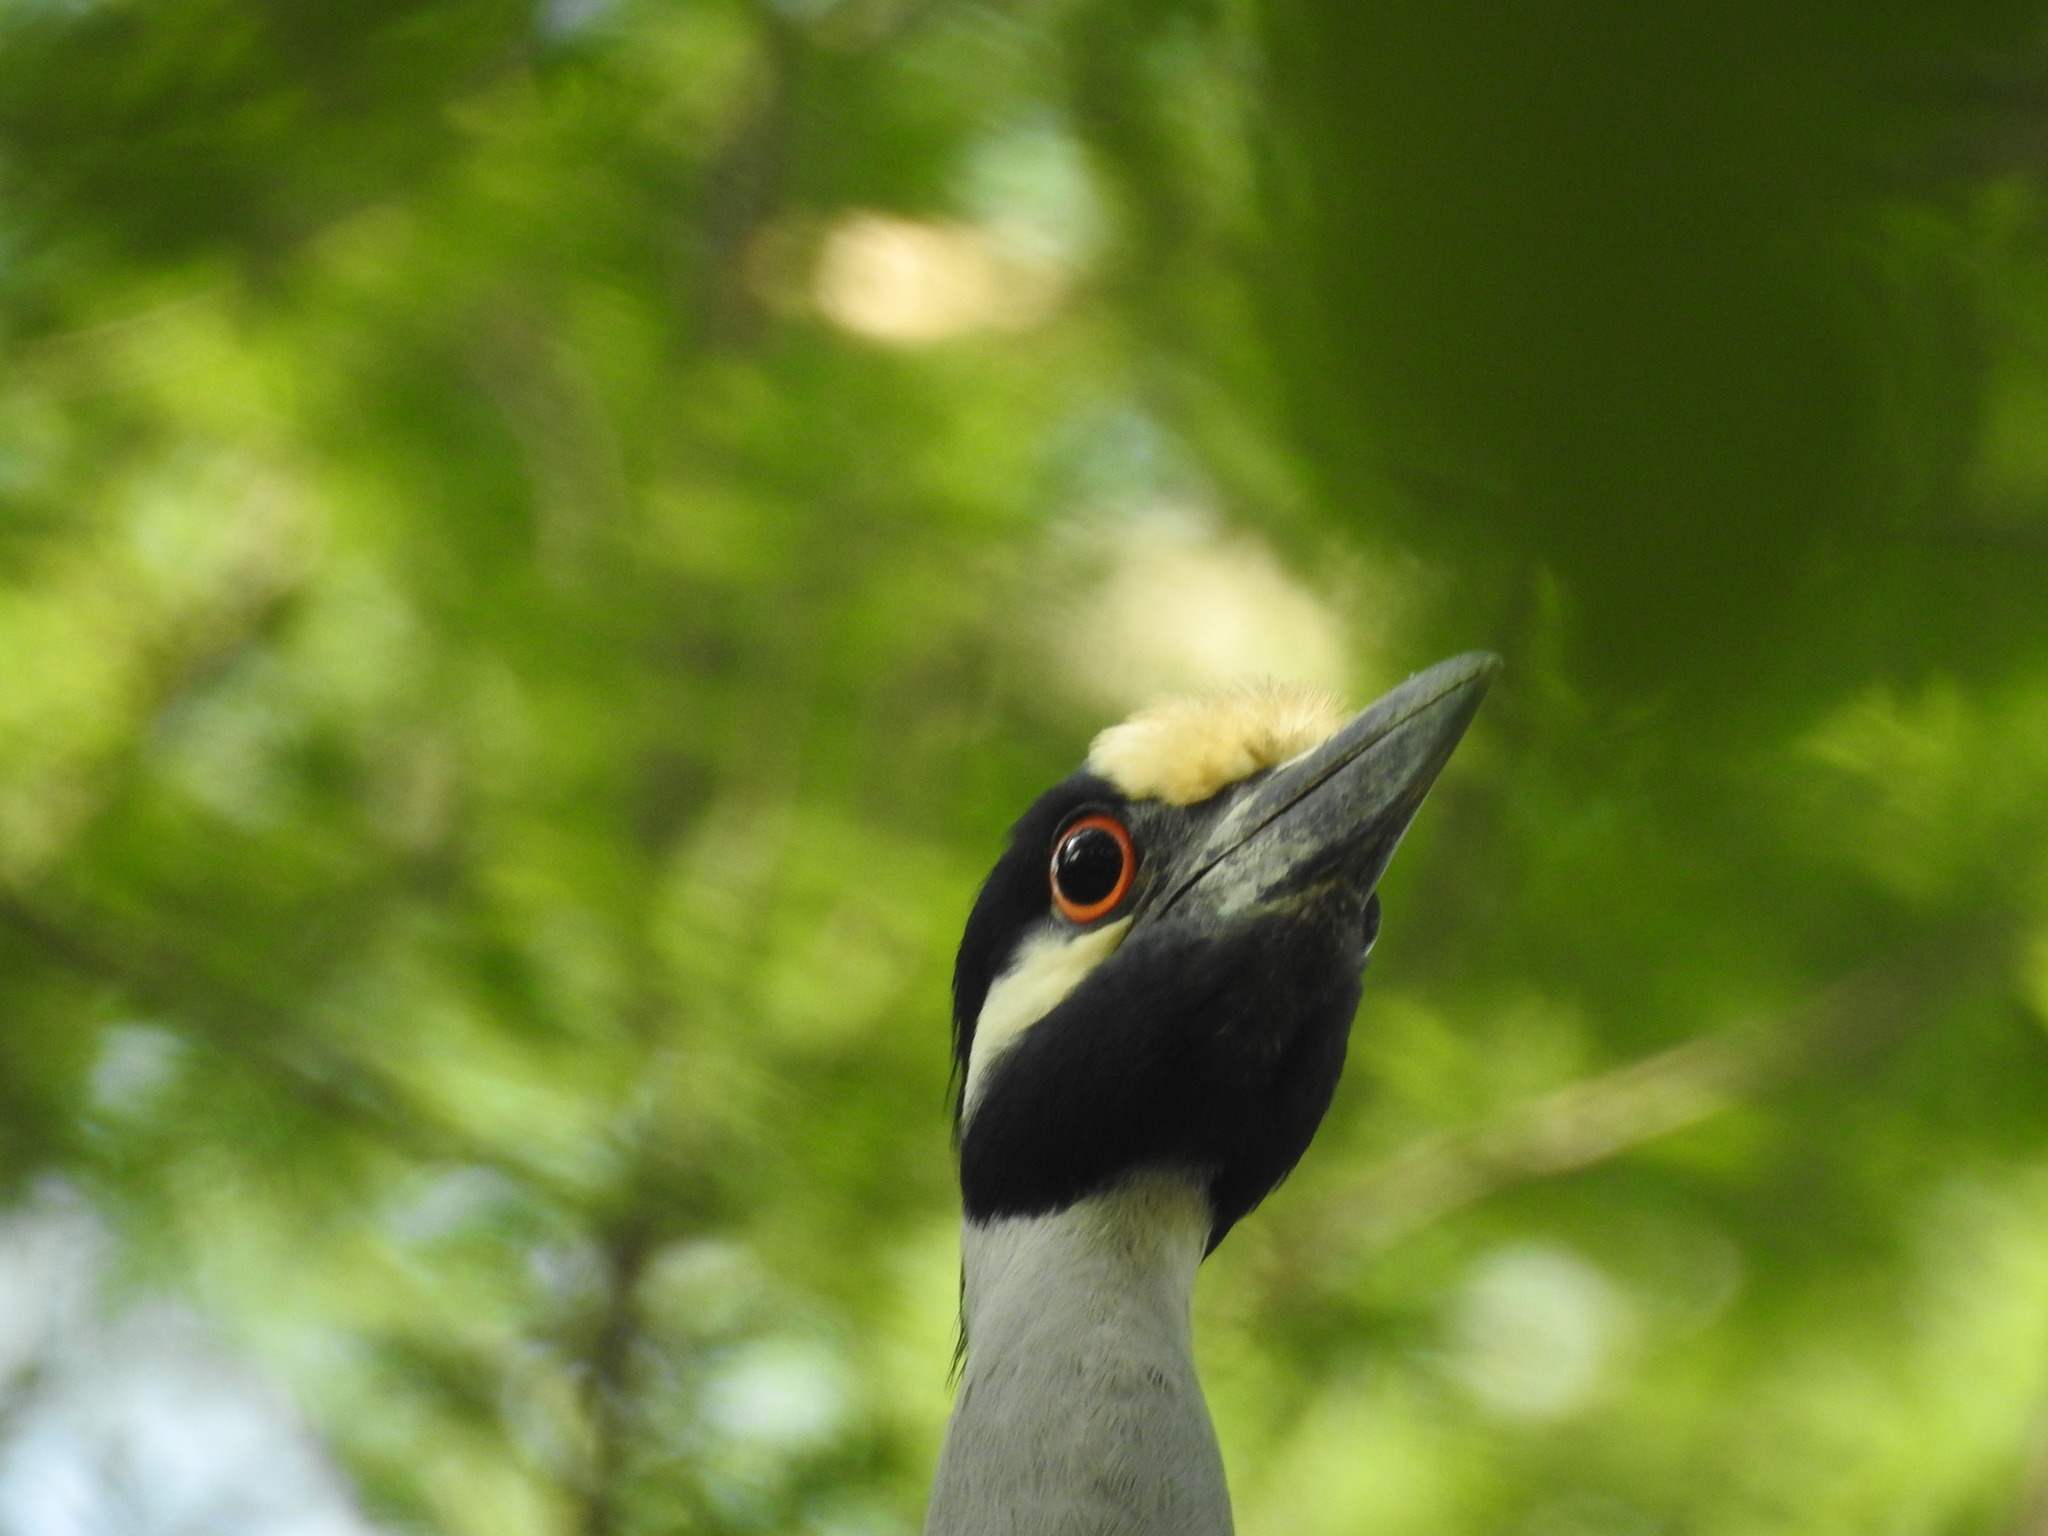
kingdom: Animalia
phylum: Chordata
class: Aves
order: Pelecaniformes
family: Ardeidae
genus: Nyctanassa
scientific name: Nyctanassa violacea
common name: Yellow-crowned night heron
